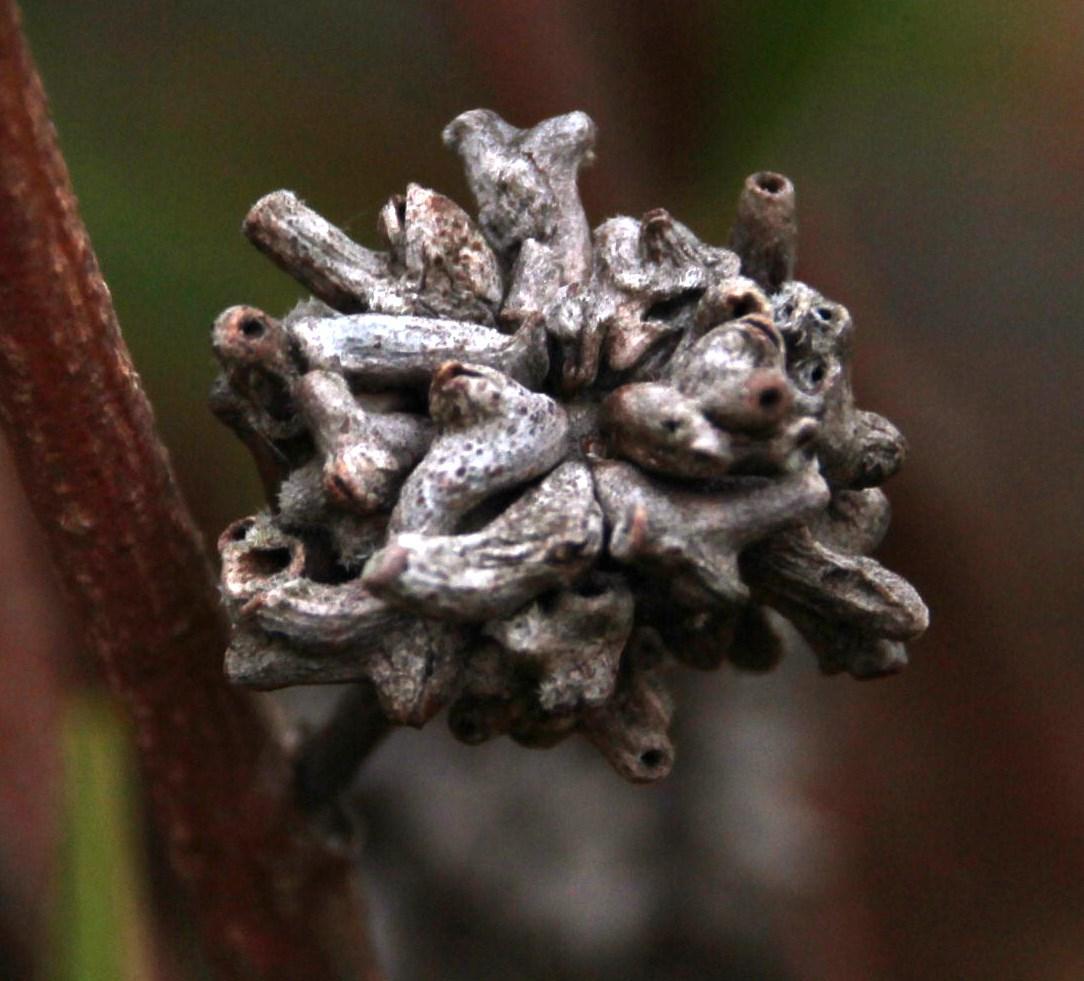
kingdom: Animalia
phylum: Arthropoda
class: Insecta
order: Diptera
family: Cecidomyiidae
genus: Dasineura
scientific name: Dasineura dielsi
